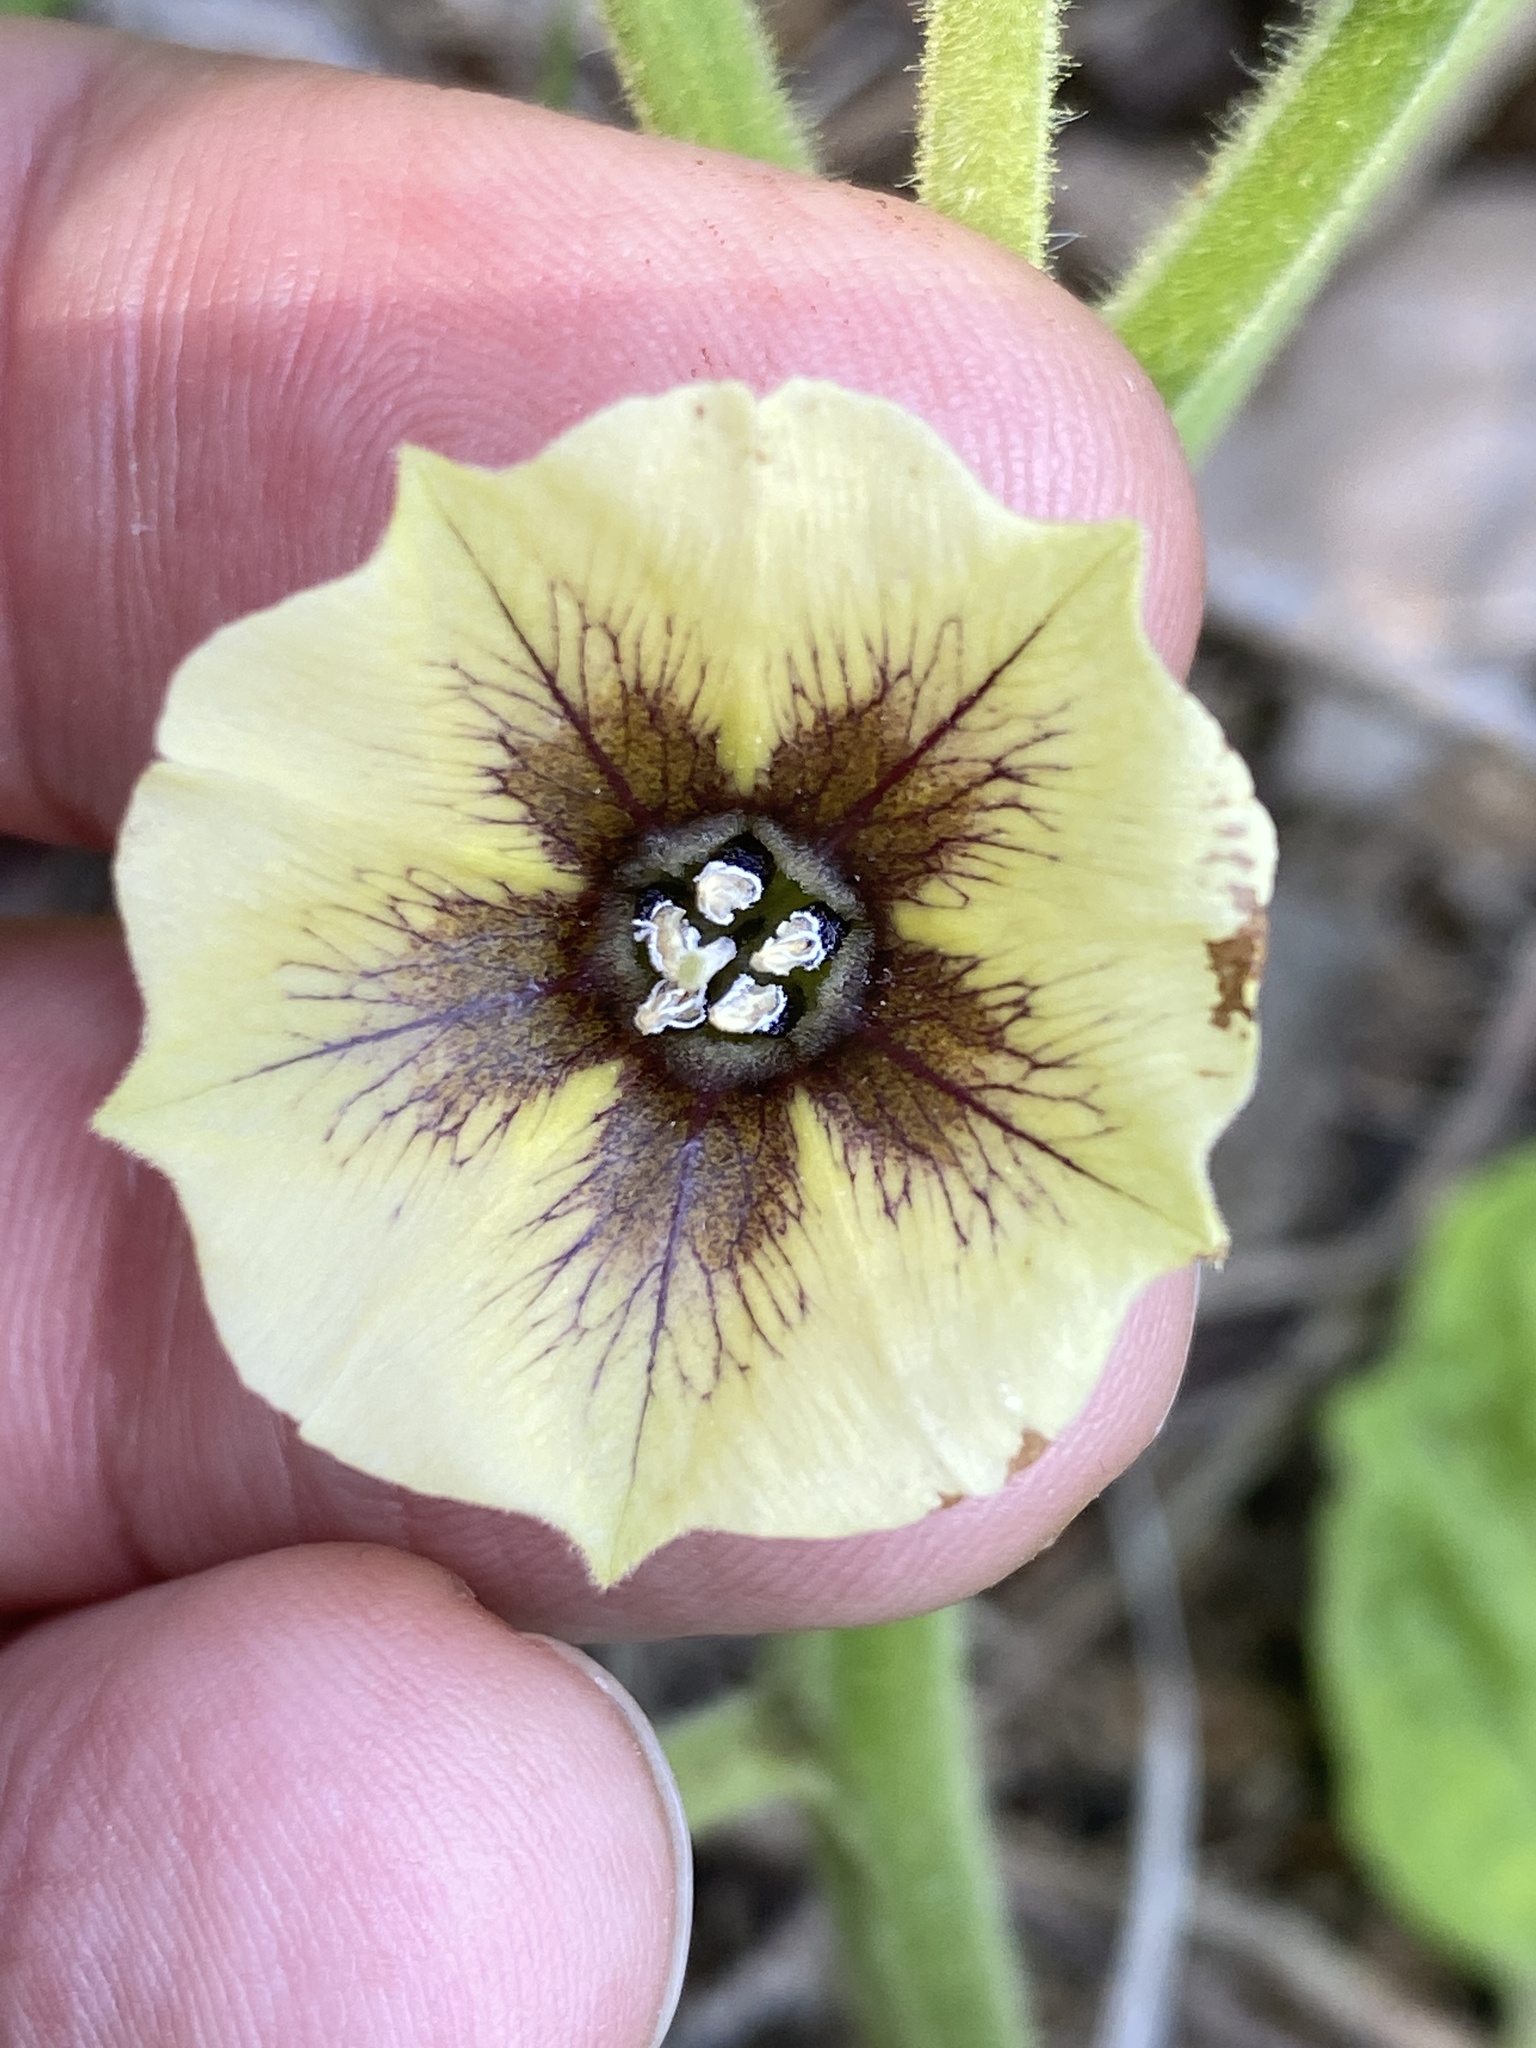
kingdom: Plantae
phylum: Tracheophyta
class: Magnoliopsida
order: Solanales
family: Solanaceae
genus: Physalis
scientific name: Physalis heterophylla
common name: Clammy ground-cherry
